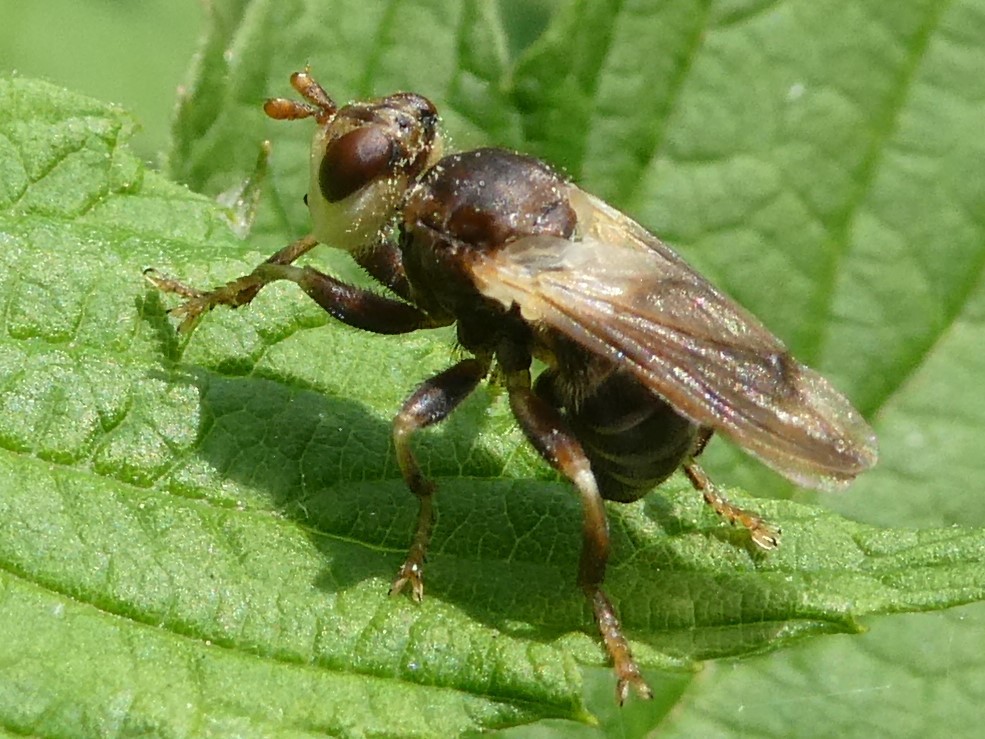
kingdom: Animalia
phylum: Arthropoda
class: Insecta
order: Diptera
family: Conopidae
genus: Myopa
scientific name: Myopa vesiculosa
